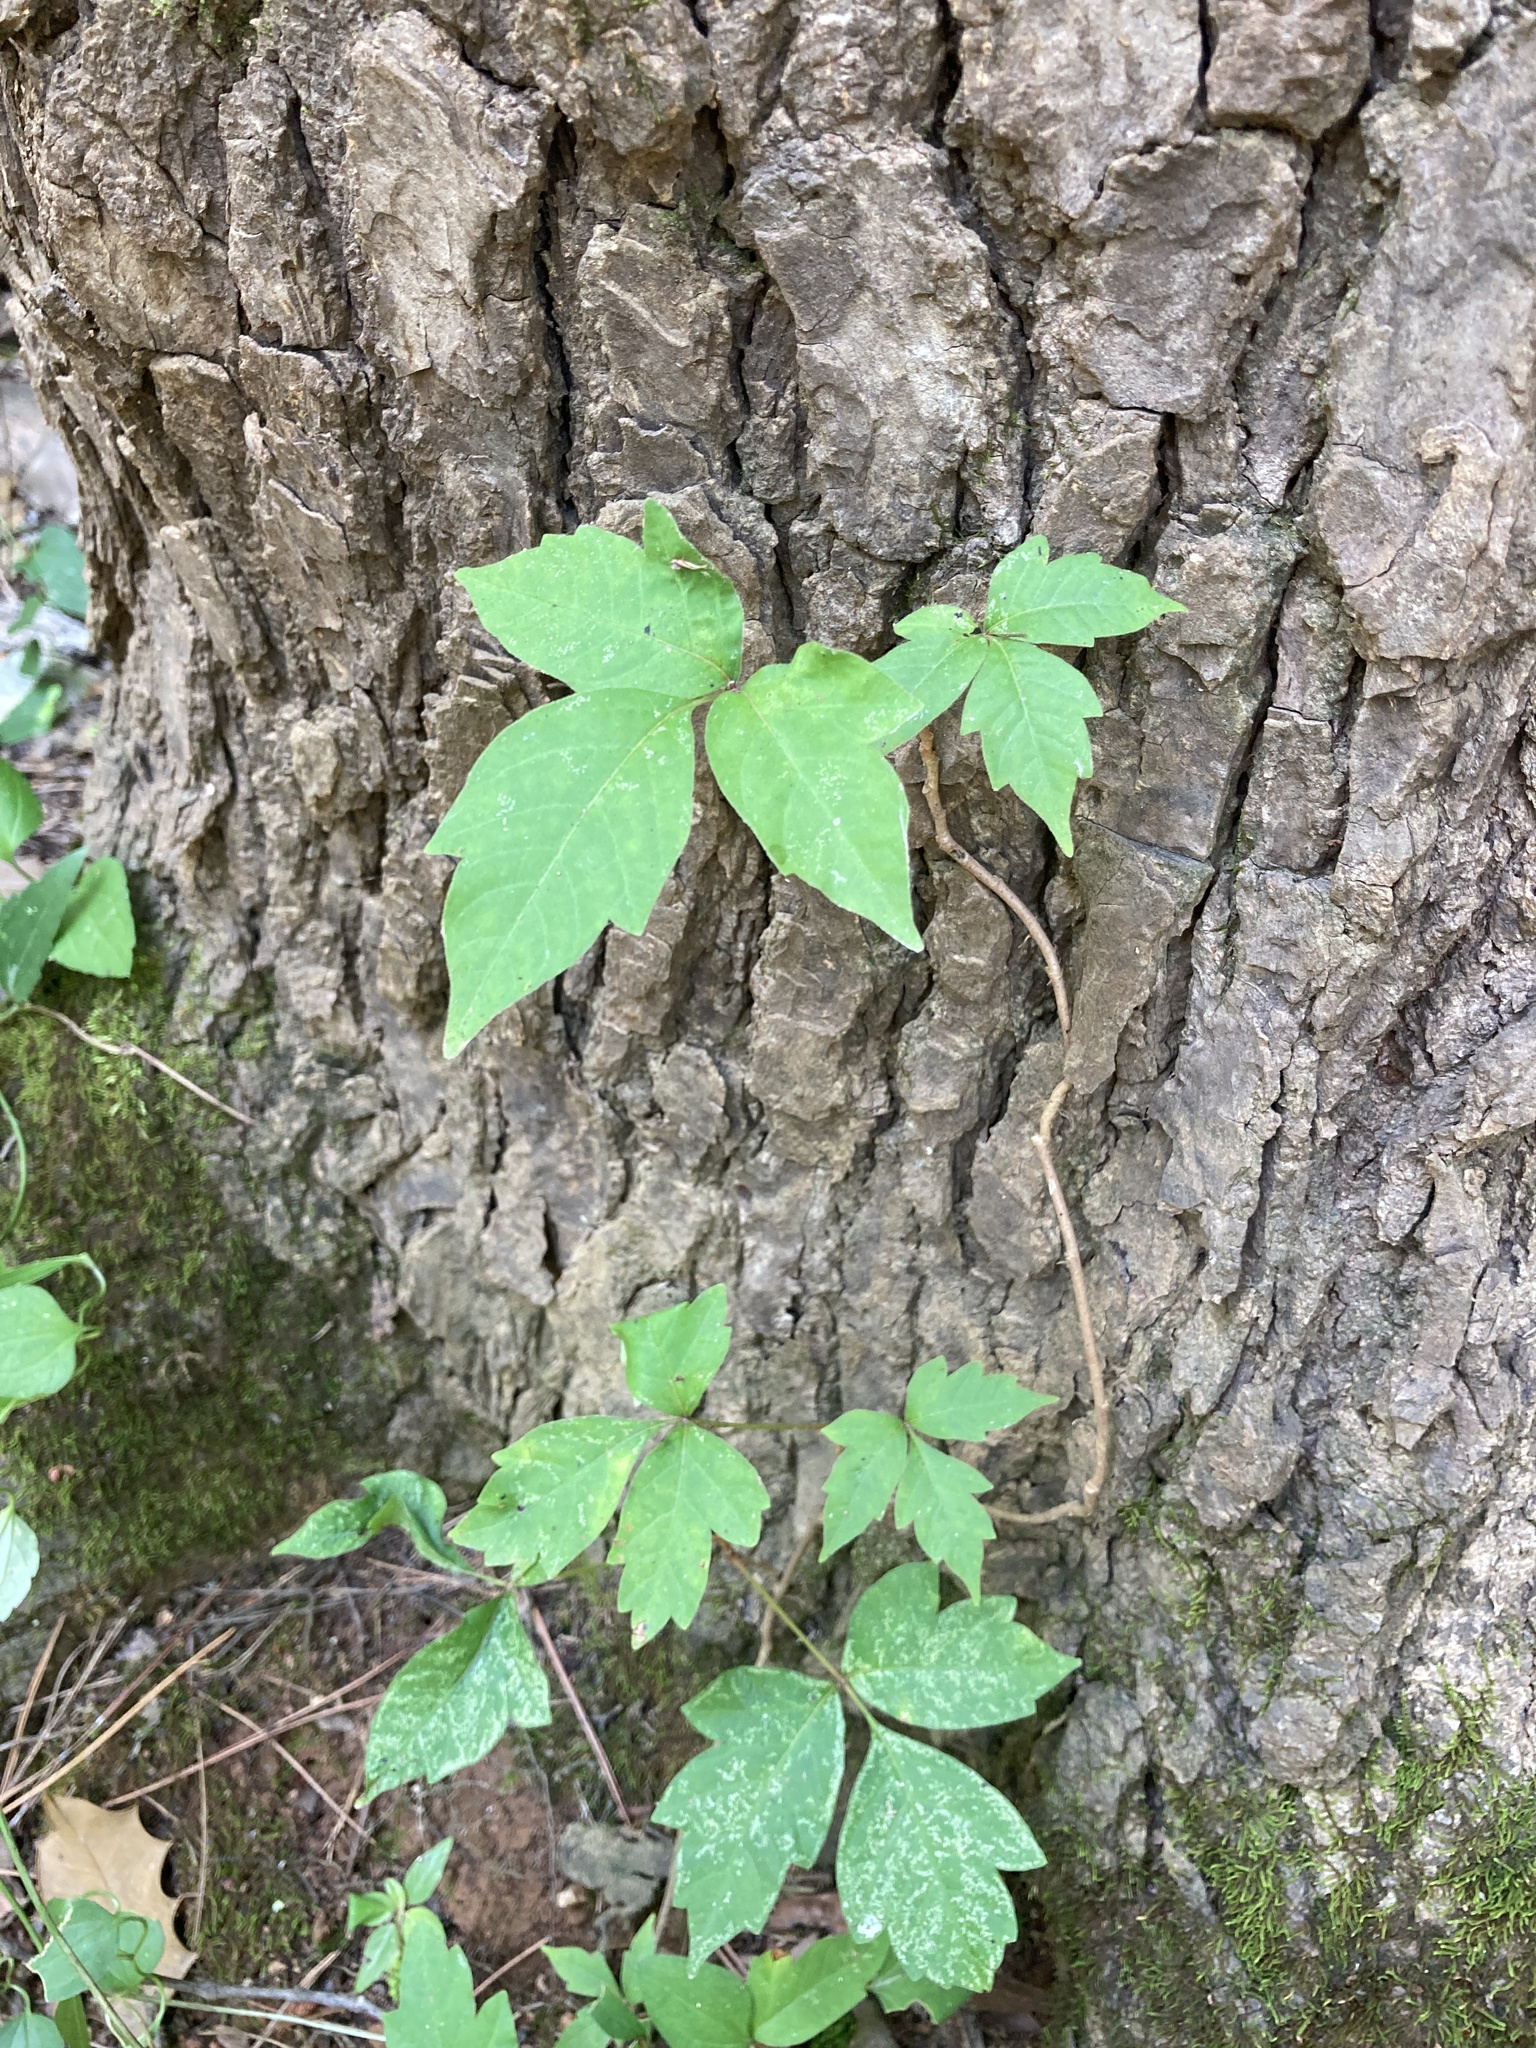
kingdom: Plantae
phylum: Tracheophyta
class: Magnoliopsida
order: Sapindales
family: Anacardiaceae
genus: Toxicodendron
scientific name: Toxicodendron radicans
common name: Poison ivy
